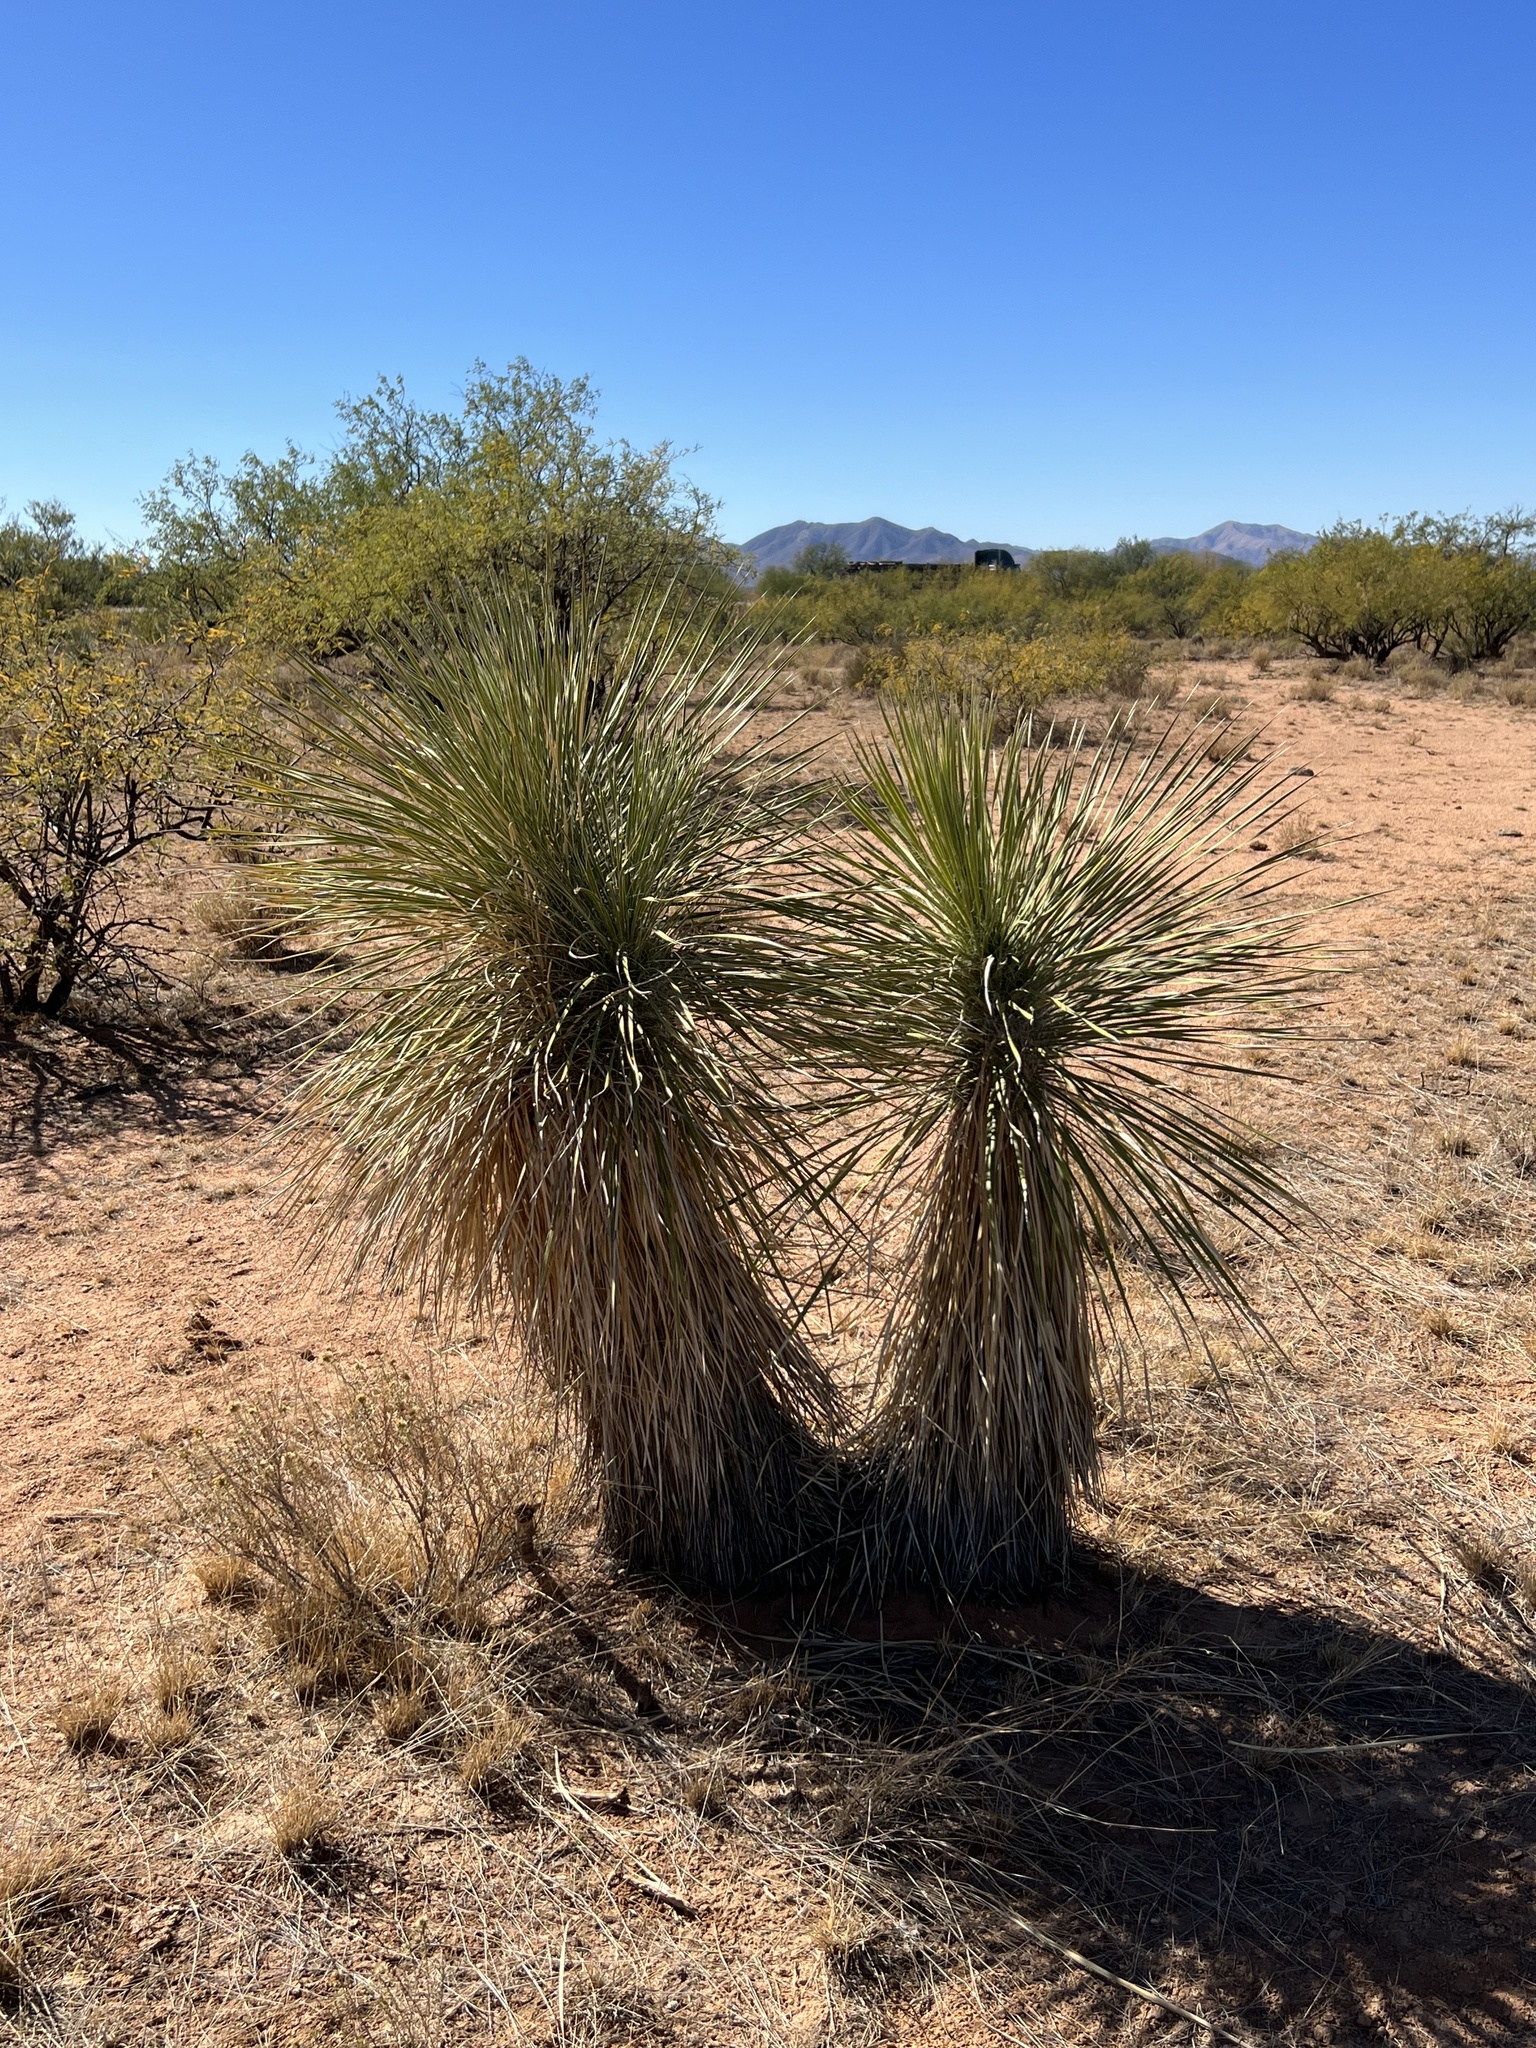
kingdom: Plantae
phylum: Tracheophyta
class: Liliopsida
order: Asparagales
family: Asparagaceae
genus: Yucca
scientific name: Yucca elata
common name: Palmella
